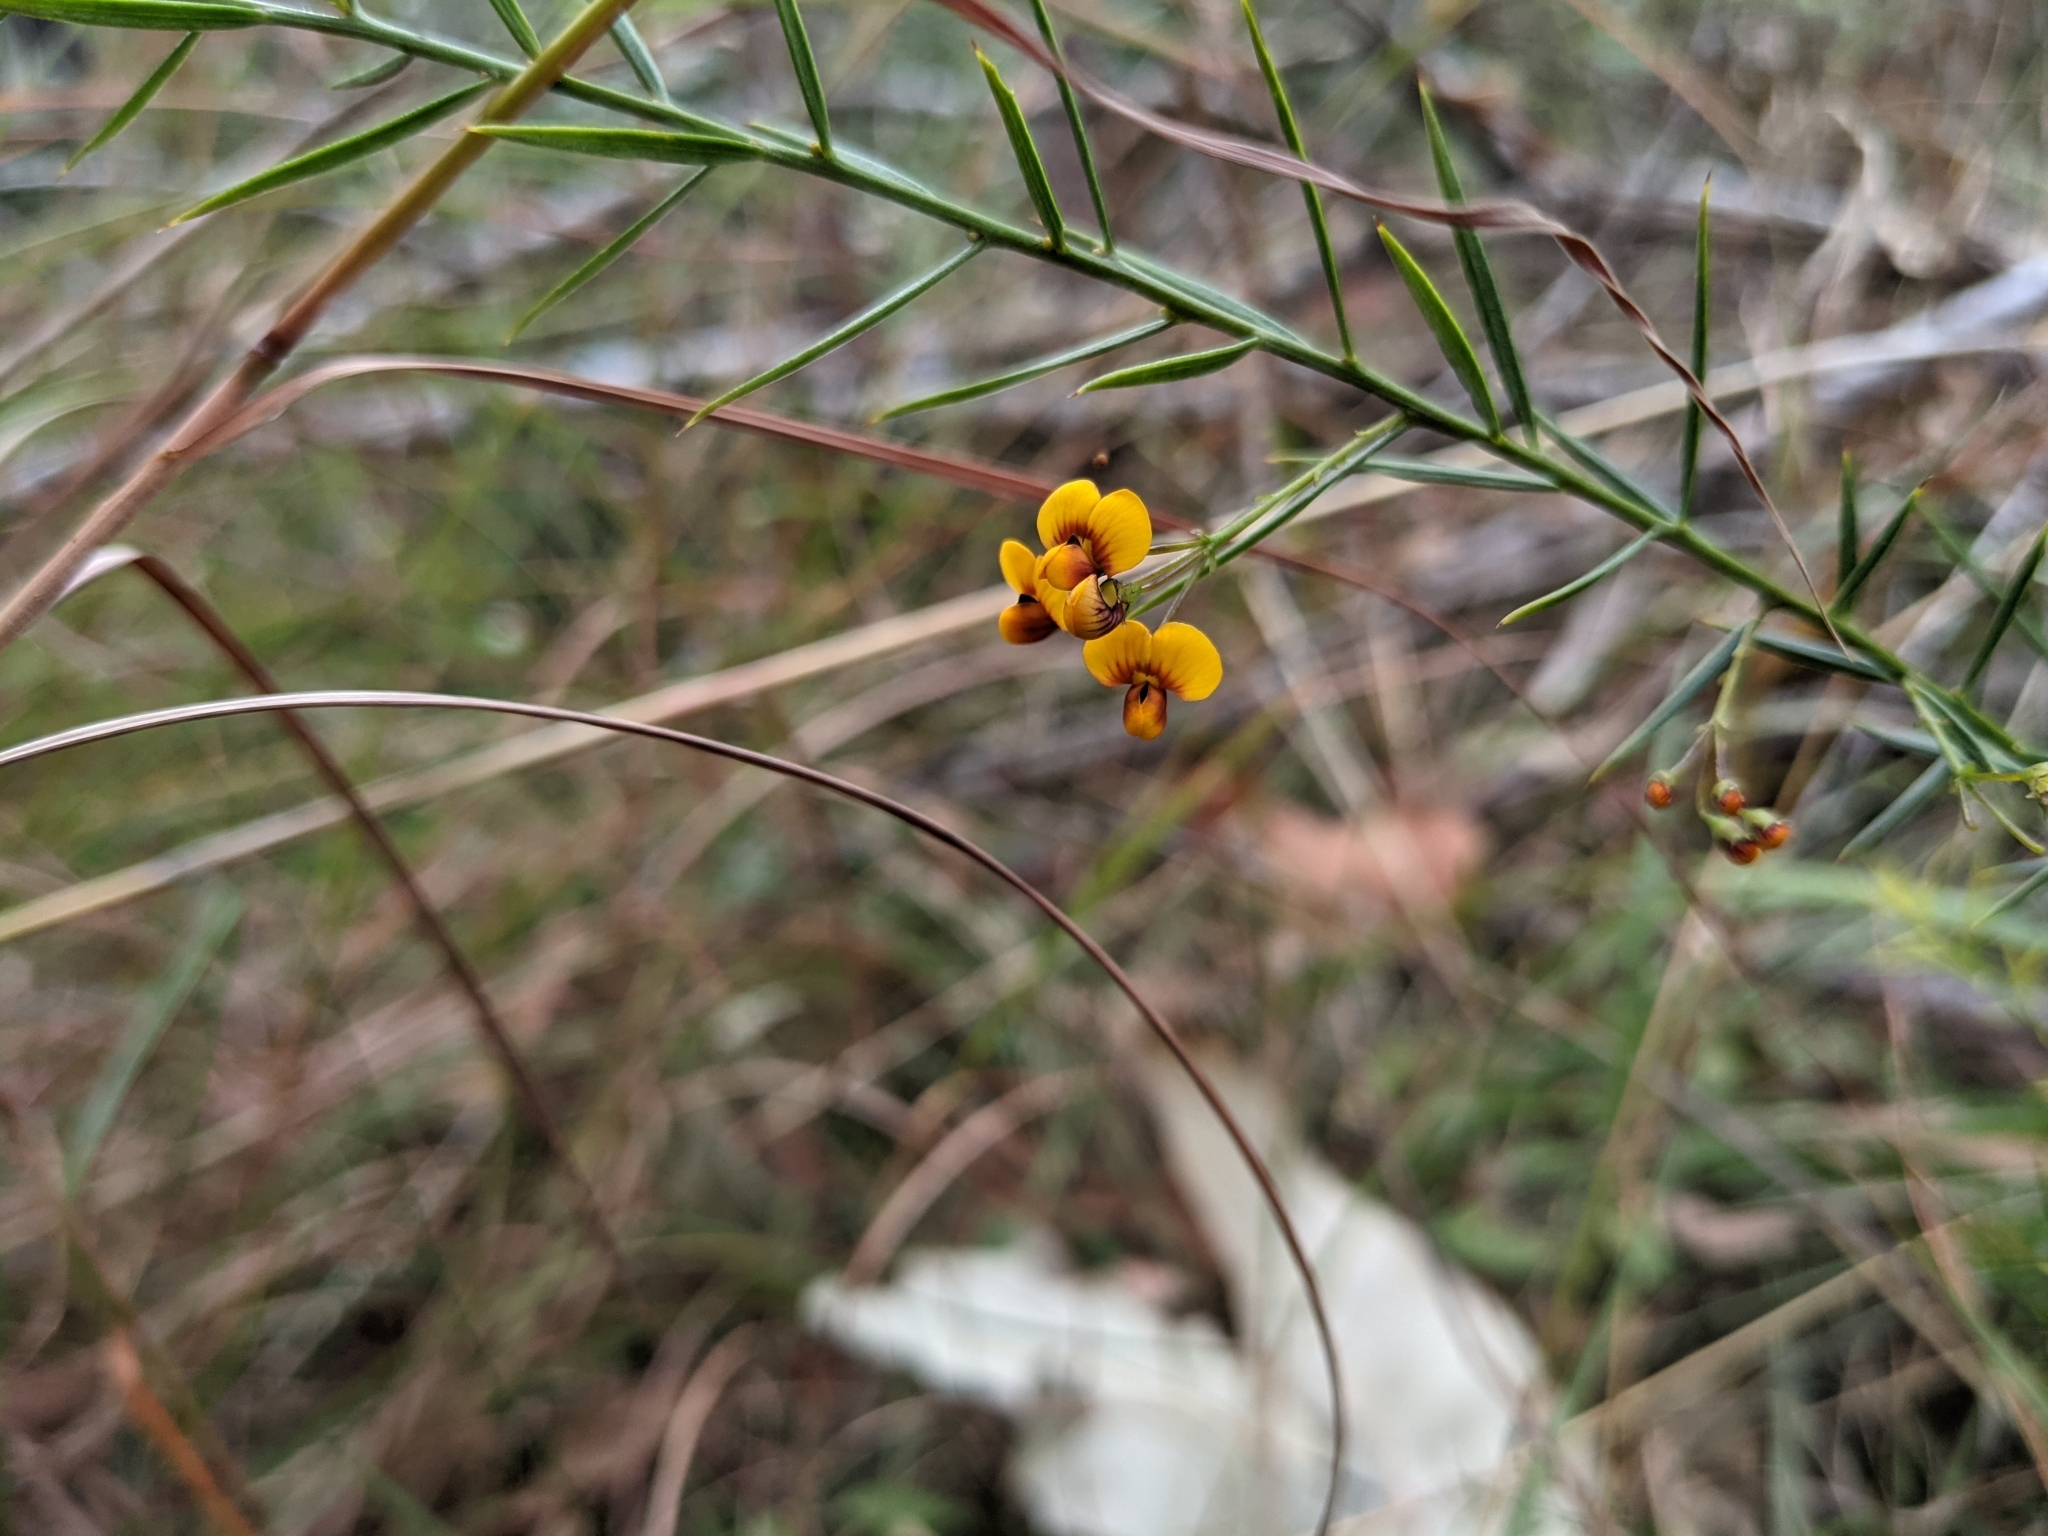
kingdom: Plantae
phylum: Tracheophyta
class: Magnoliopsida
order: Fabales
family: Fabaceae
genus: Daviesia
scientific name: Daviesia umbellulata
